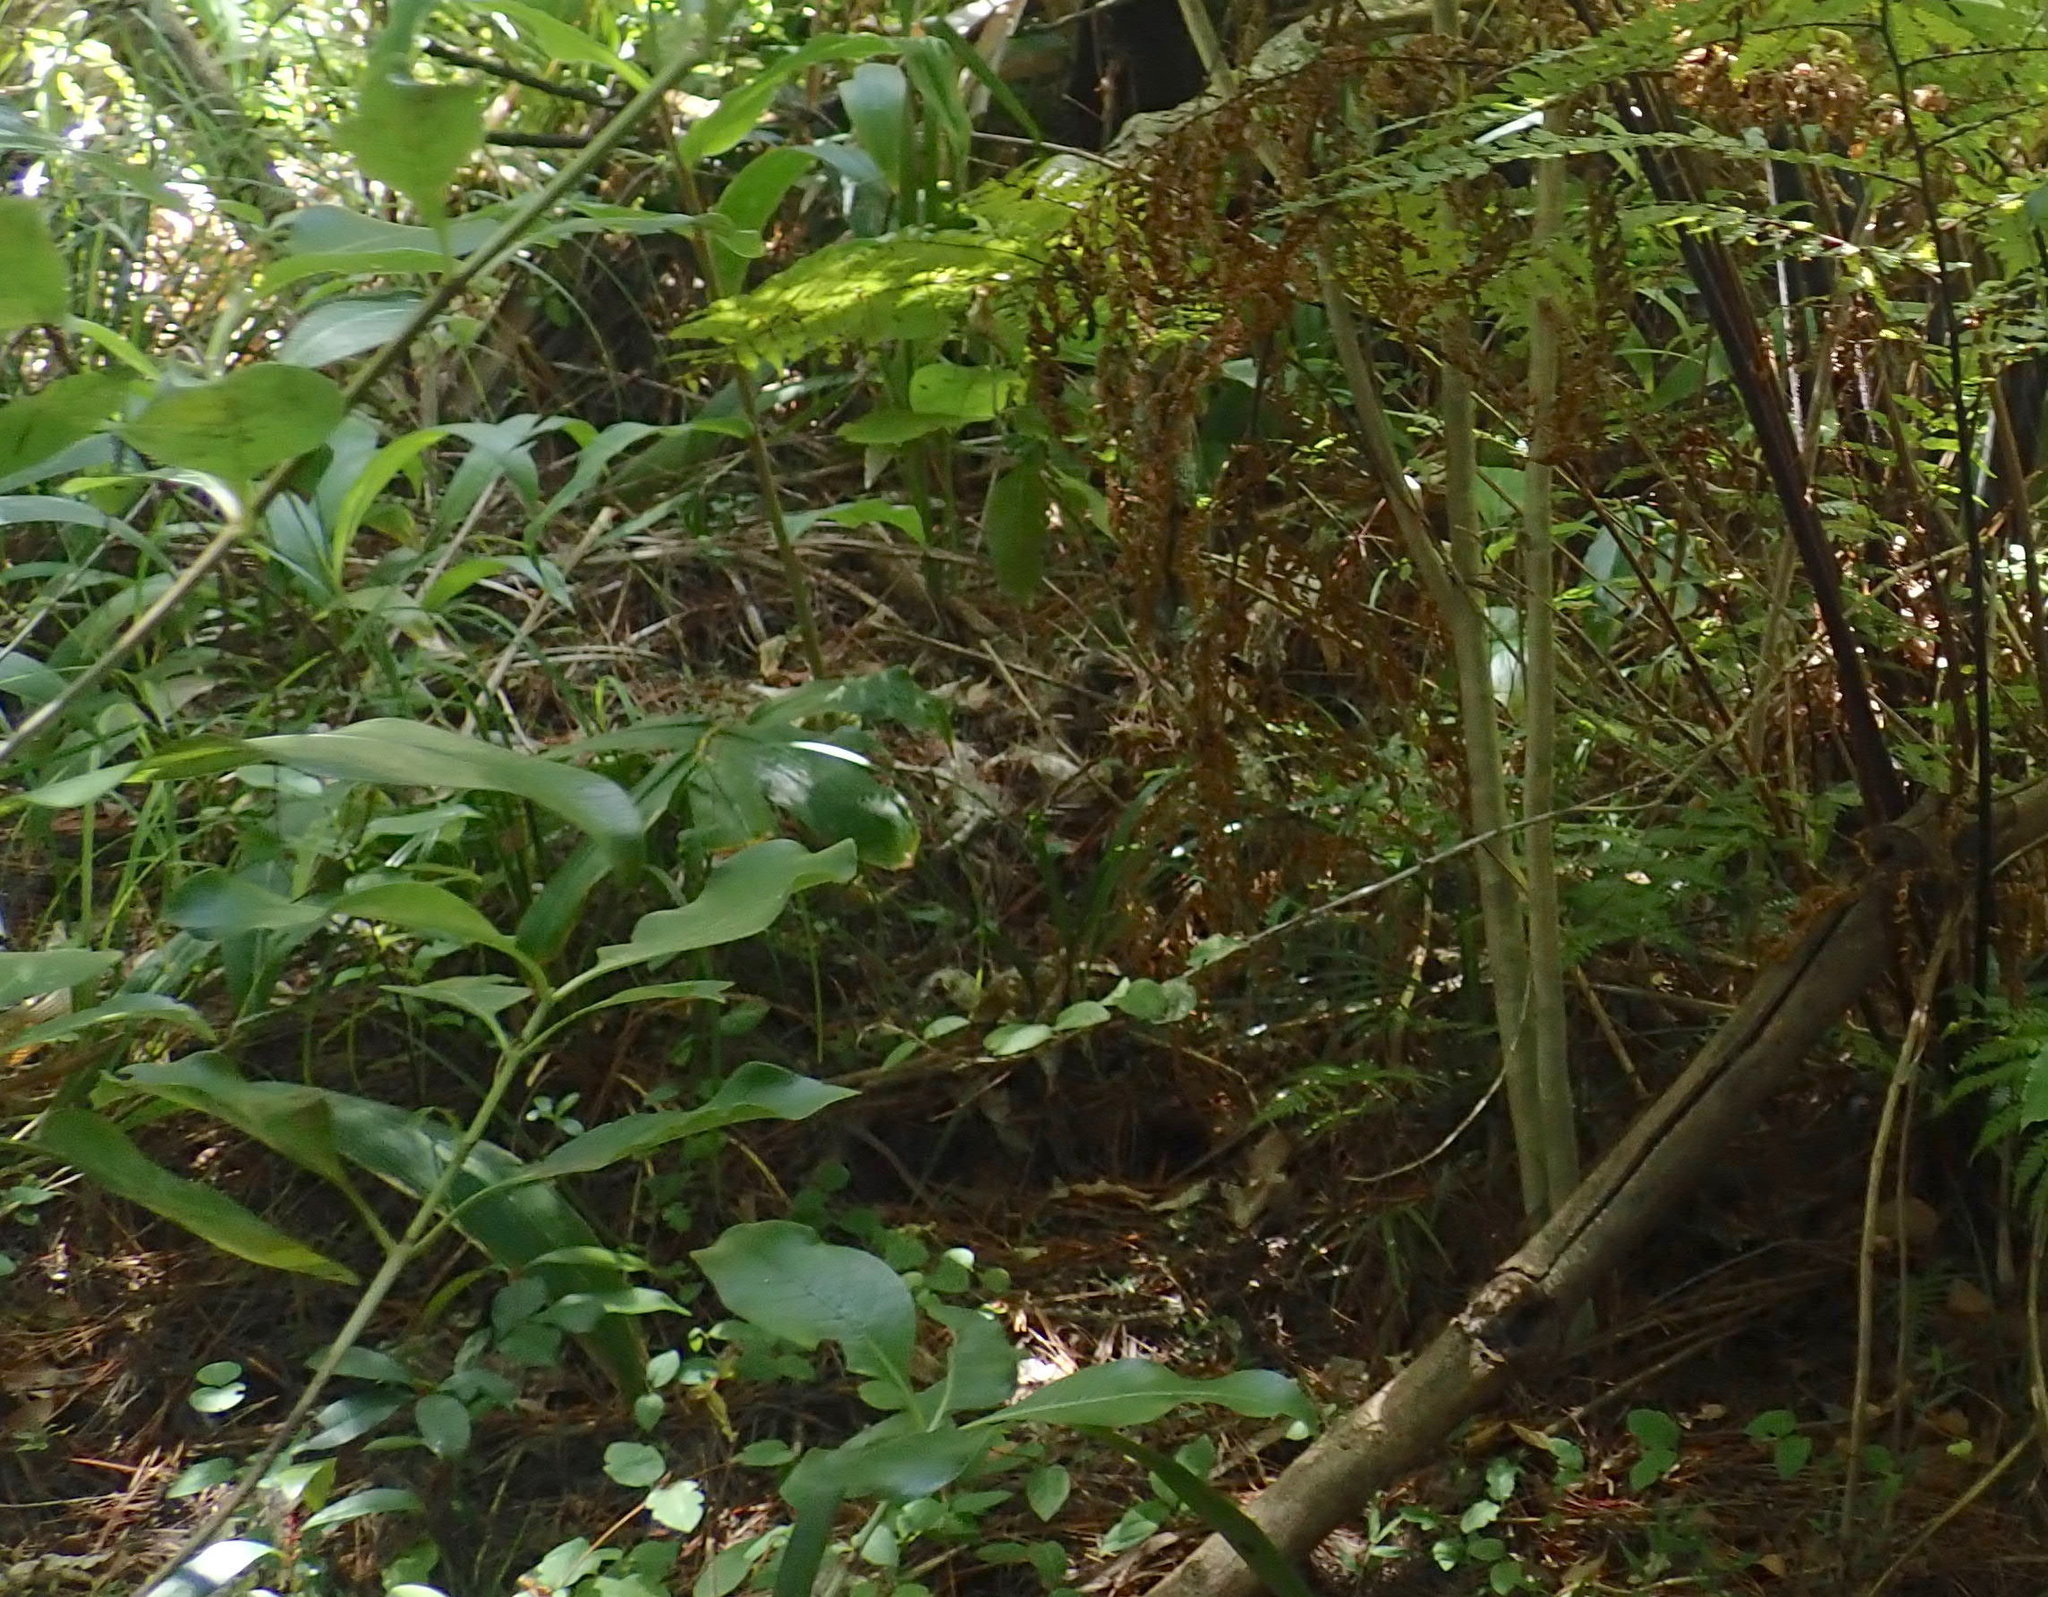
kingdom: Plantae
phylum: Tracheophyta
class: Magnoliopsida
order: Dipsacales
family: Caprifoliaceae
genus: Lonicera
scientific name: Lonicera japonica
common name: Japanese honeysuckle
